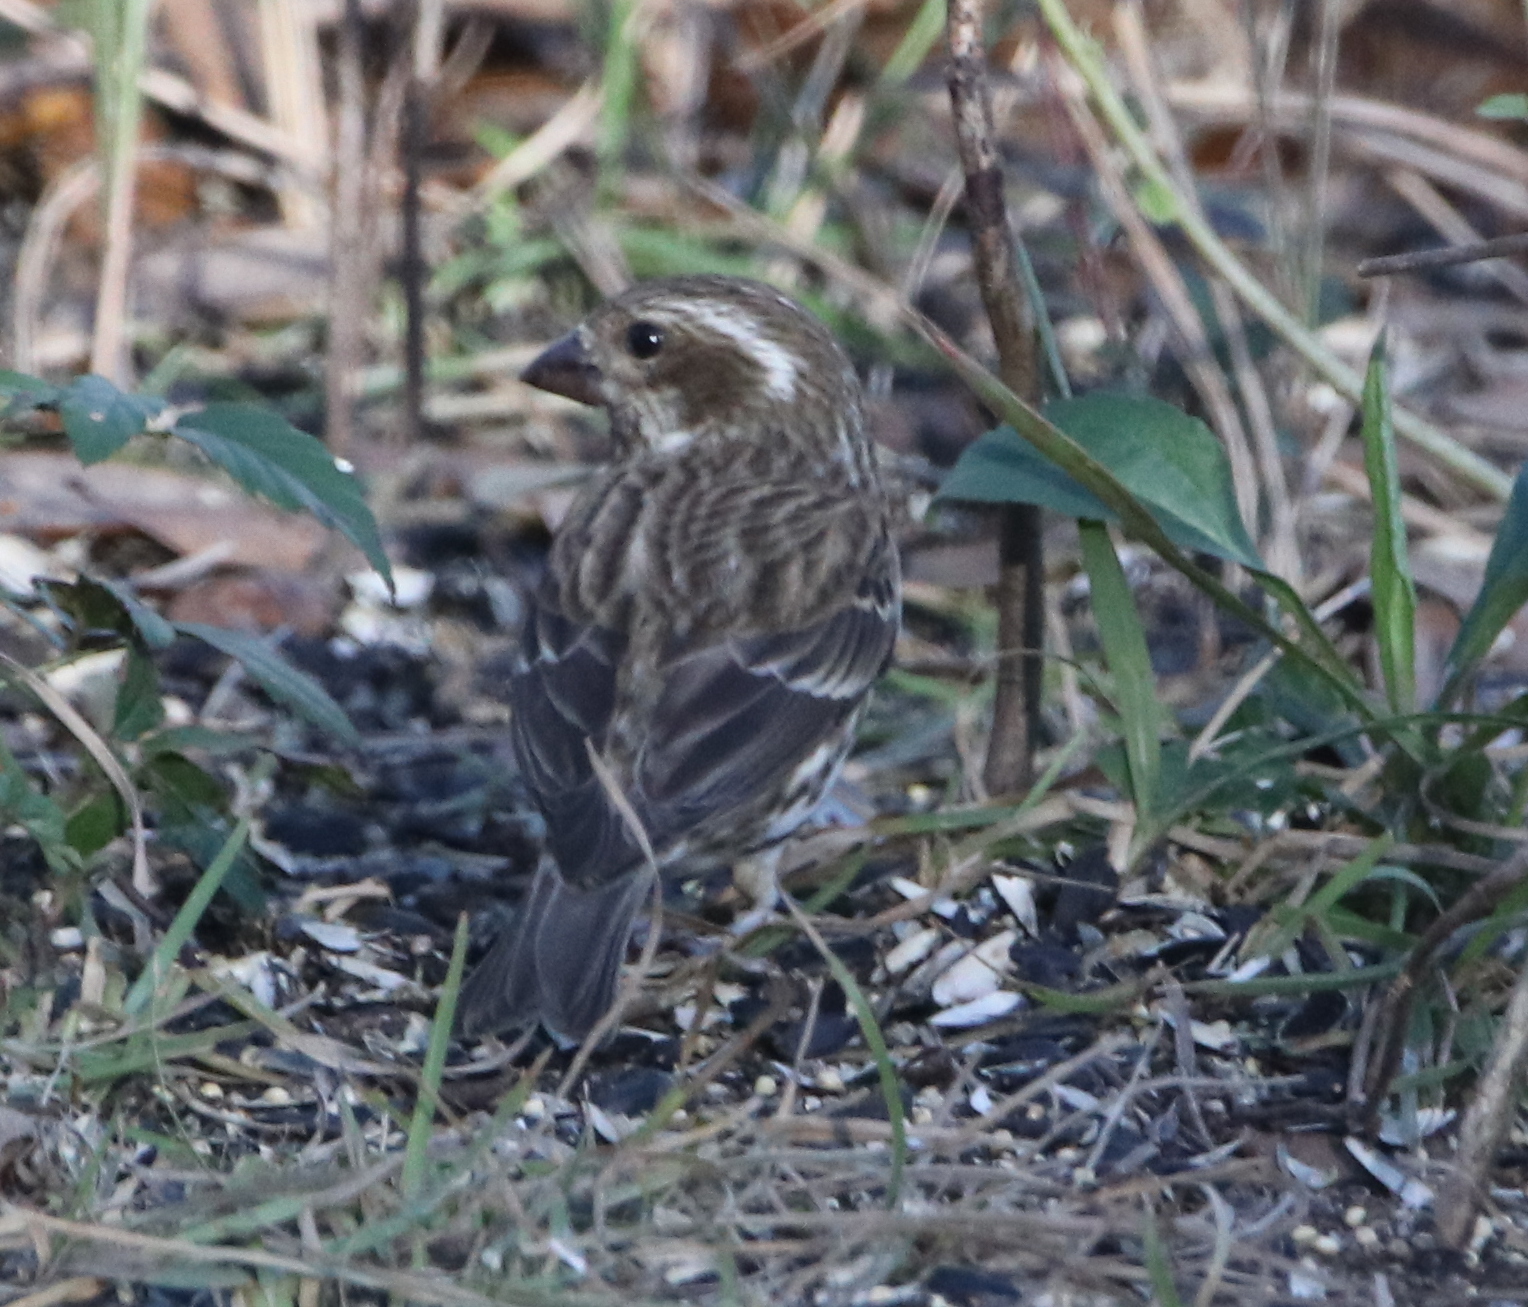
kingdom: Animalia
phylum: Chordata
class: Aves
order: Passeriformes
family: Fringillidae
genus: Haemorhous
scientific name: Haemorhous purpureus
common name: Purple finch
